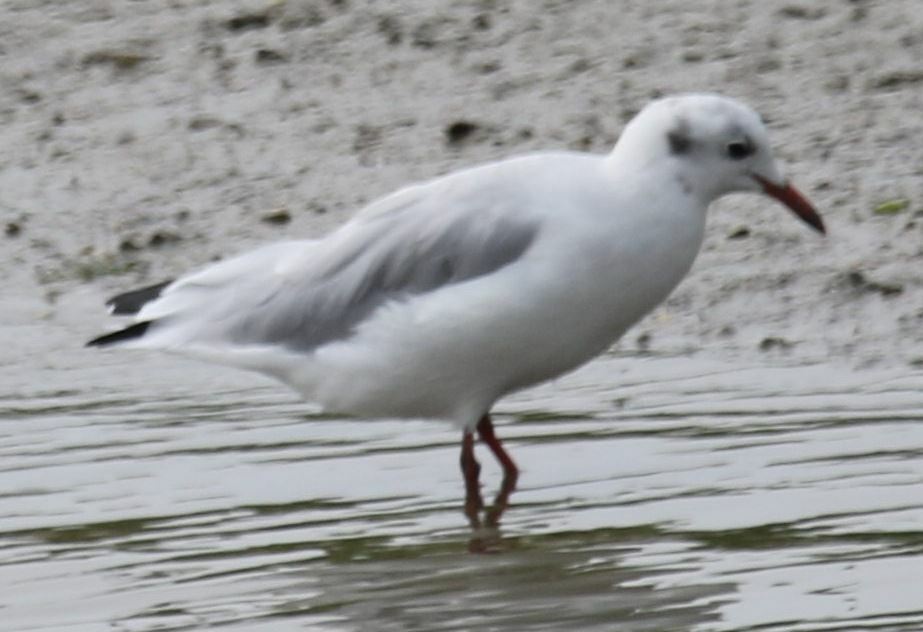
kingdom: Animalia
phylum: Chordata
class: Aves
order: Charadriiformes
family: Laridae
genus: Chroicocephalus
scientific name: Chroicocephalus ridibundus
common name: Black-headed gull
